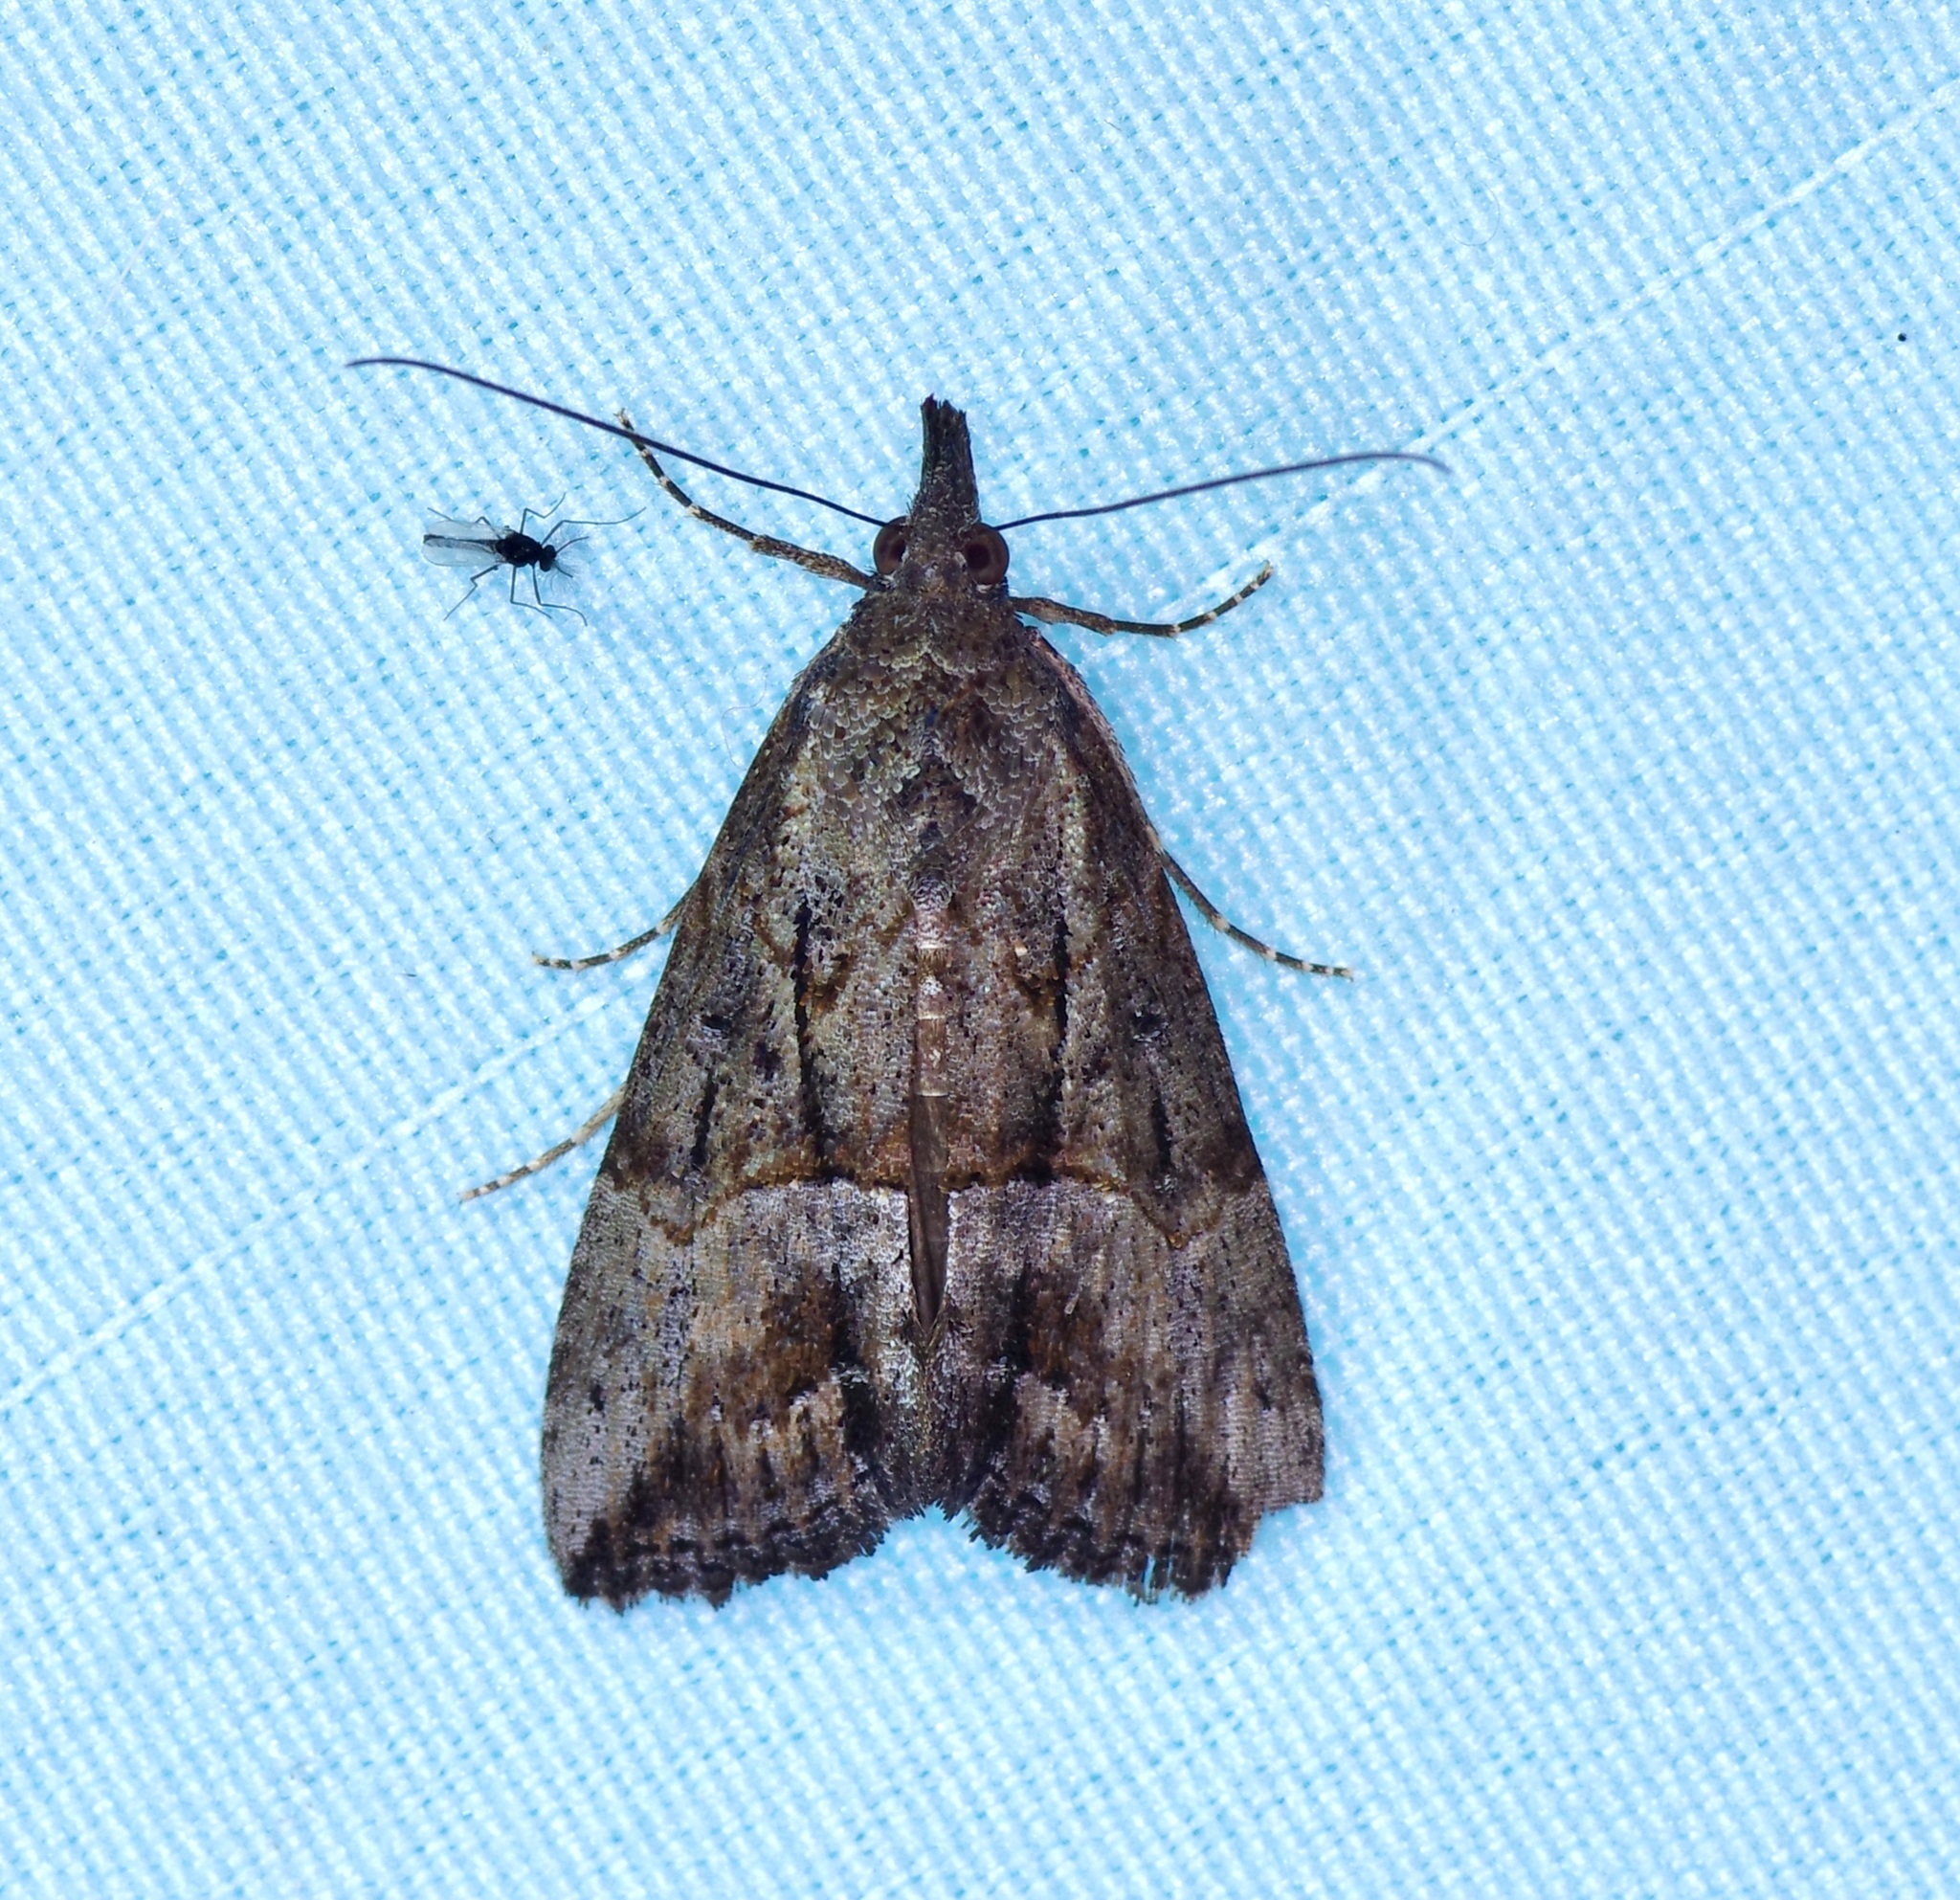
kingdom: Animalia
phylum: Arthropoda
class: Insecta
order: Lepidoptera
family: Erebidae
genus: Hypena
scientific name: Hypena scabra
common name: Green cloverworm
